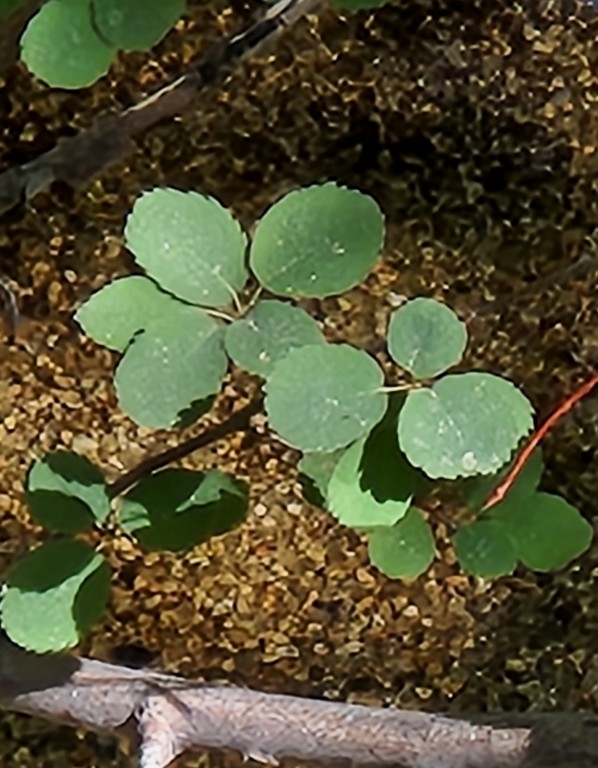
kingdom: Plantae
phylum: Tracheophyta
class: Magnoliopsida
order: Rosales
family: Rosaceae
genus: Amelanchier
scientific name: Amelanchier utahensis
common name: Utah serviceberry
